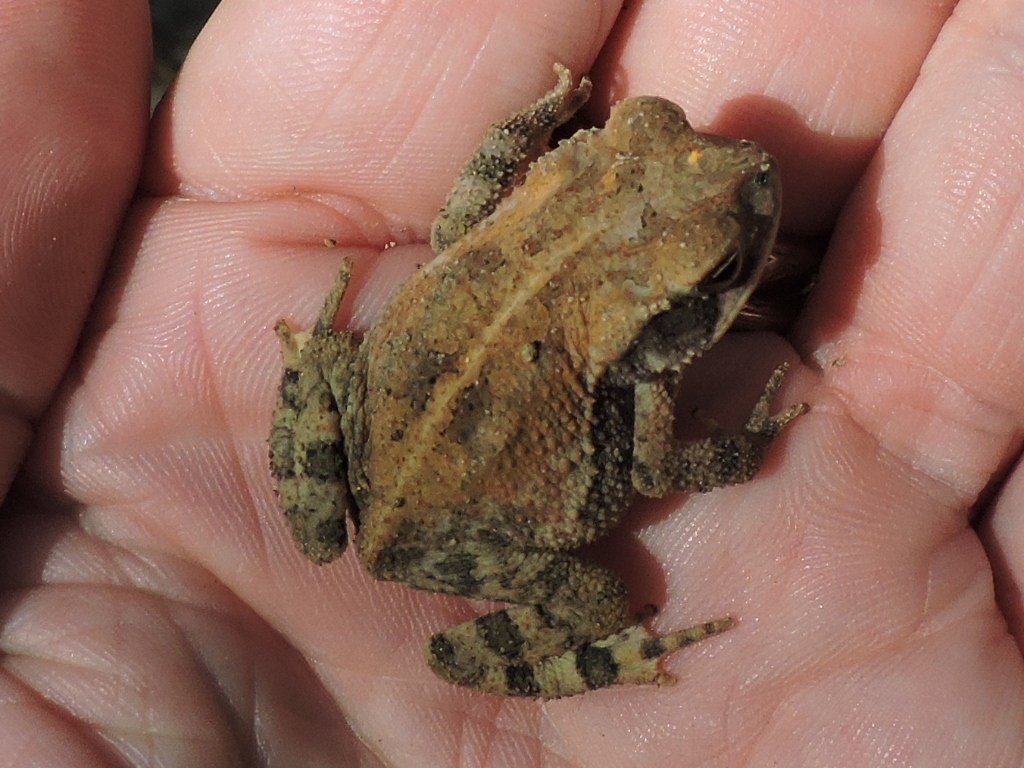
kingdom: Animalia
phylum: Chordata
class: Amphibia
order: Anura
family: Bufonidae
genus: Incilius
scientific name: Incilius nebulifer
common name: Gulf coast toad
